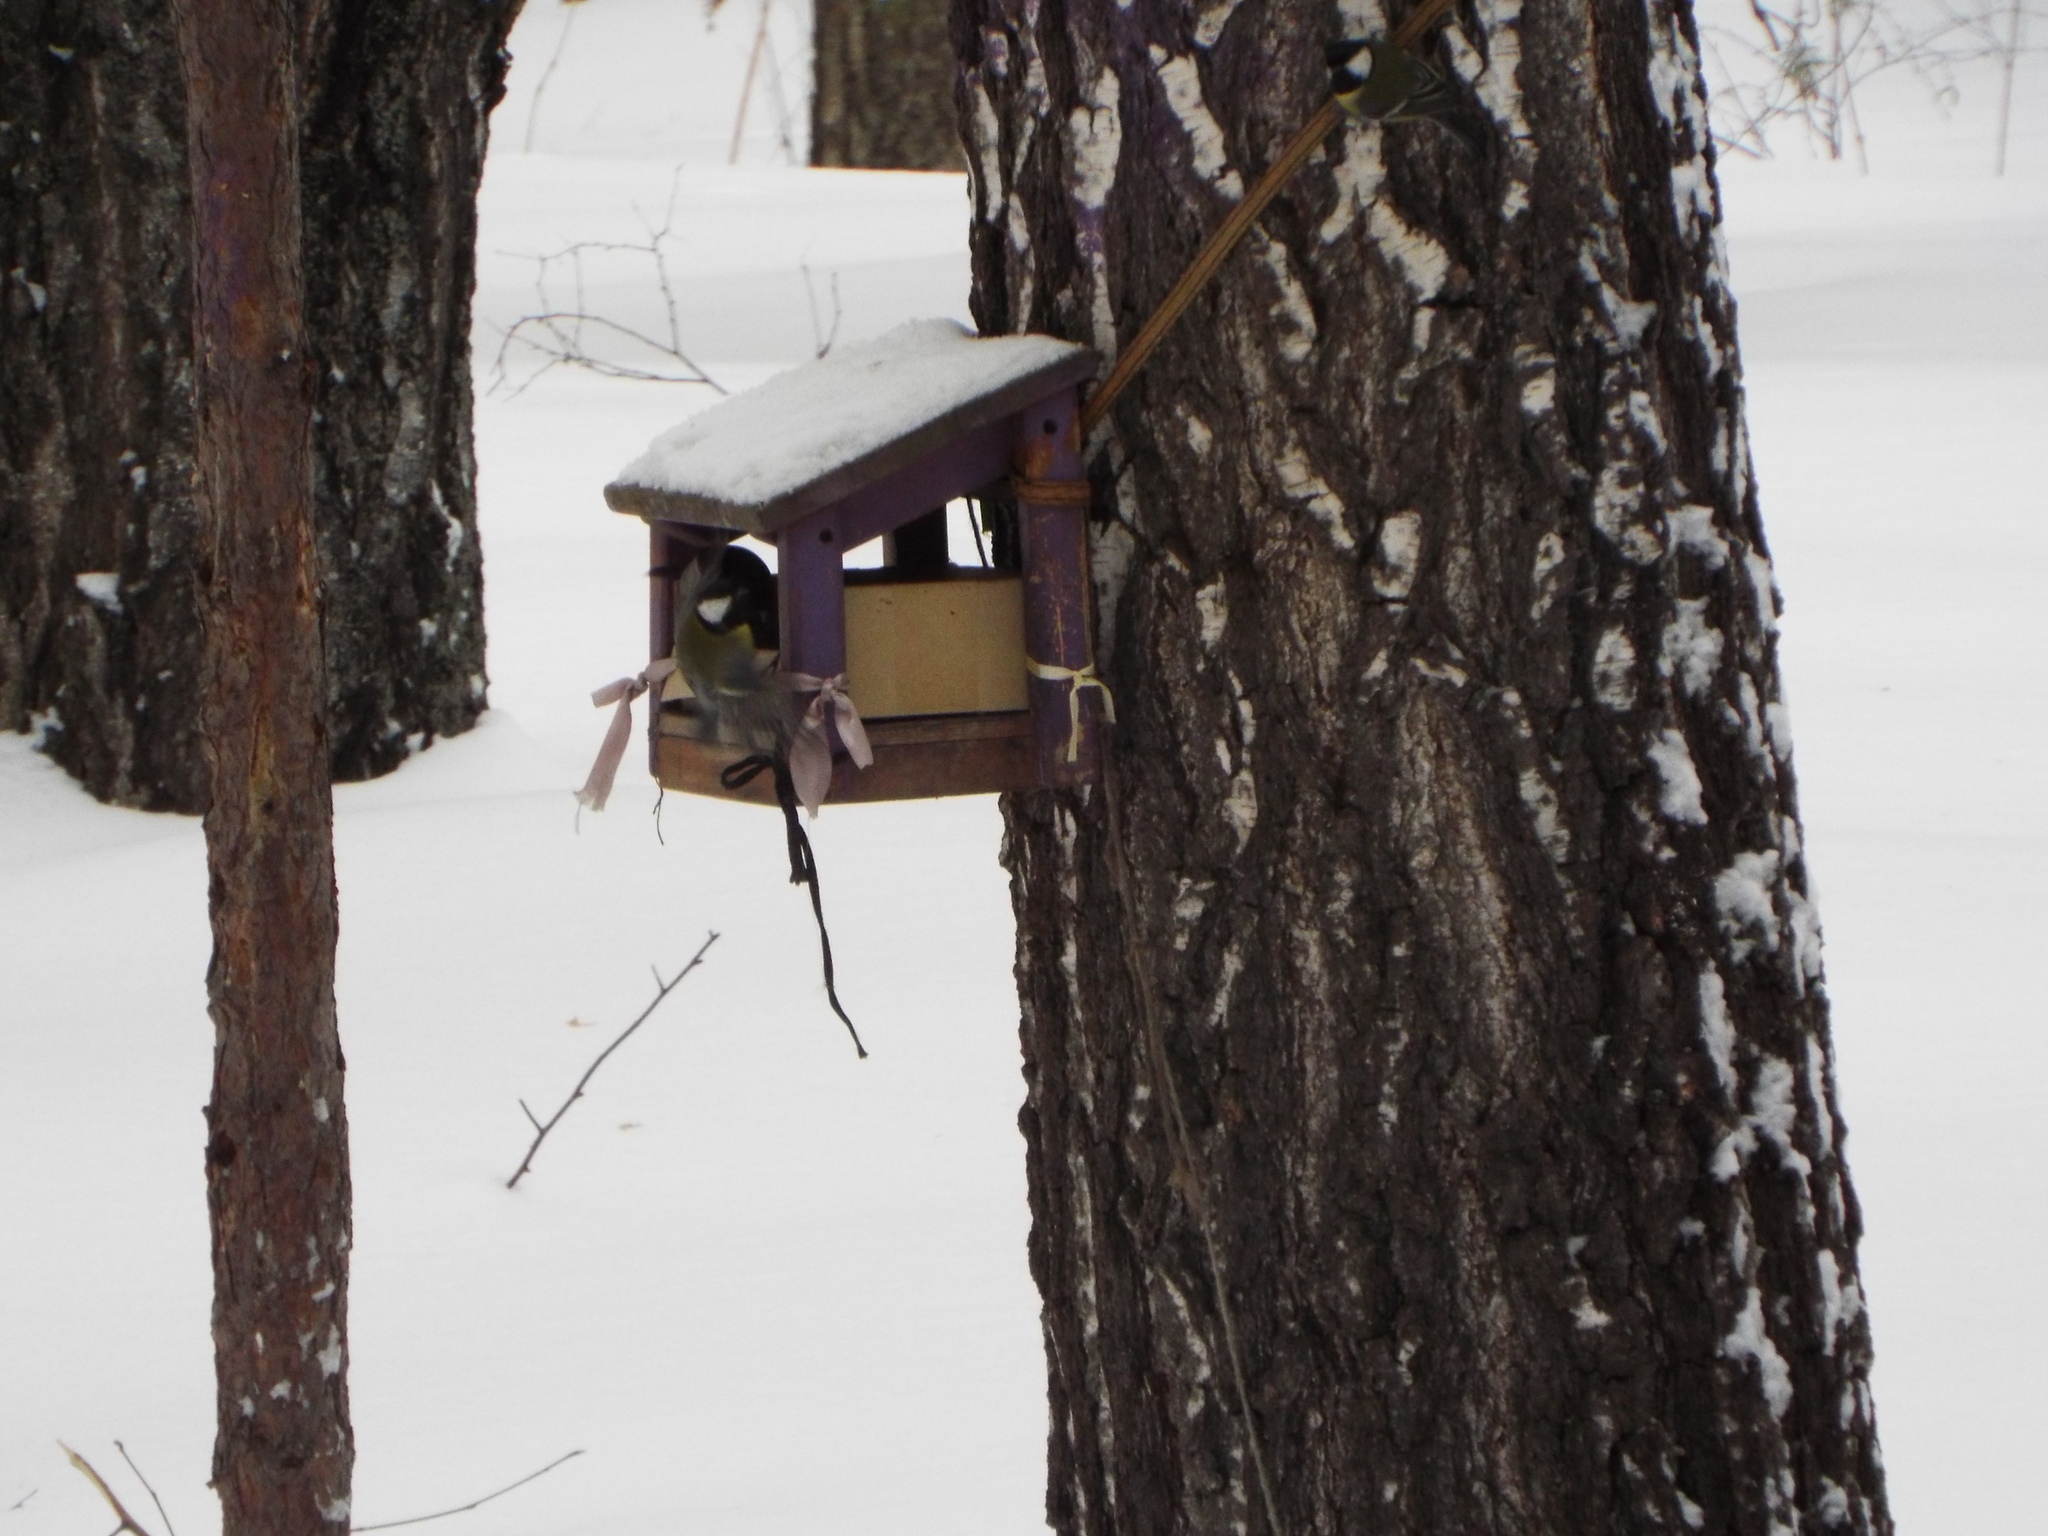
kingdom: Animalia
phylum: Chordata
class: Aves
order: Passeriformes
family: Paridae
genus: Parus
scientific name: Parus major
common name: Great tit
